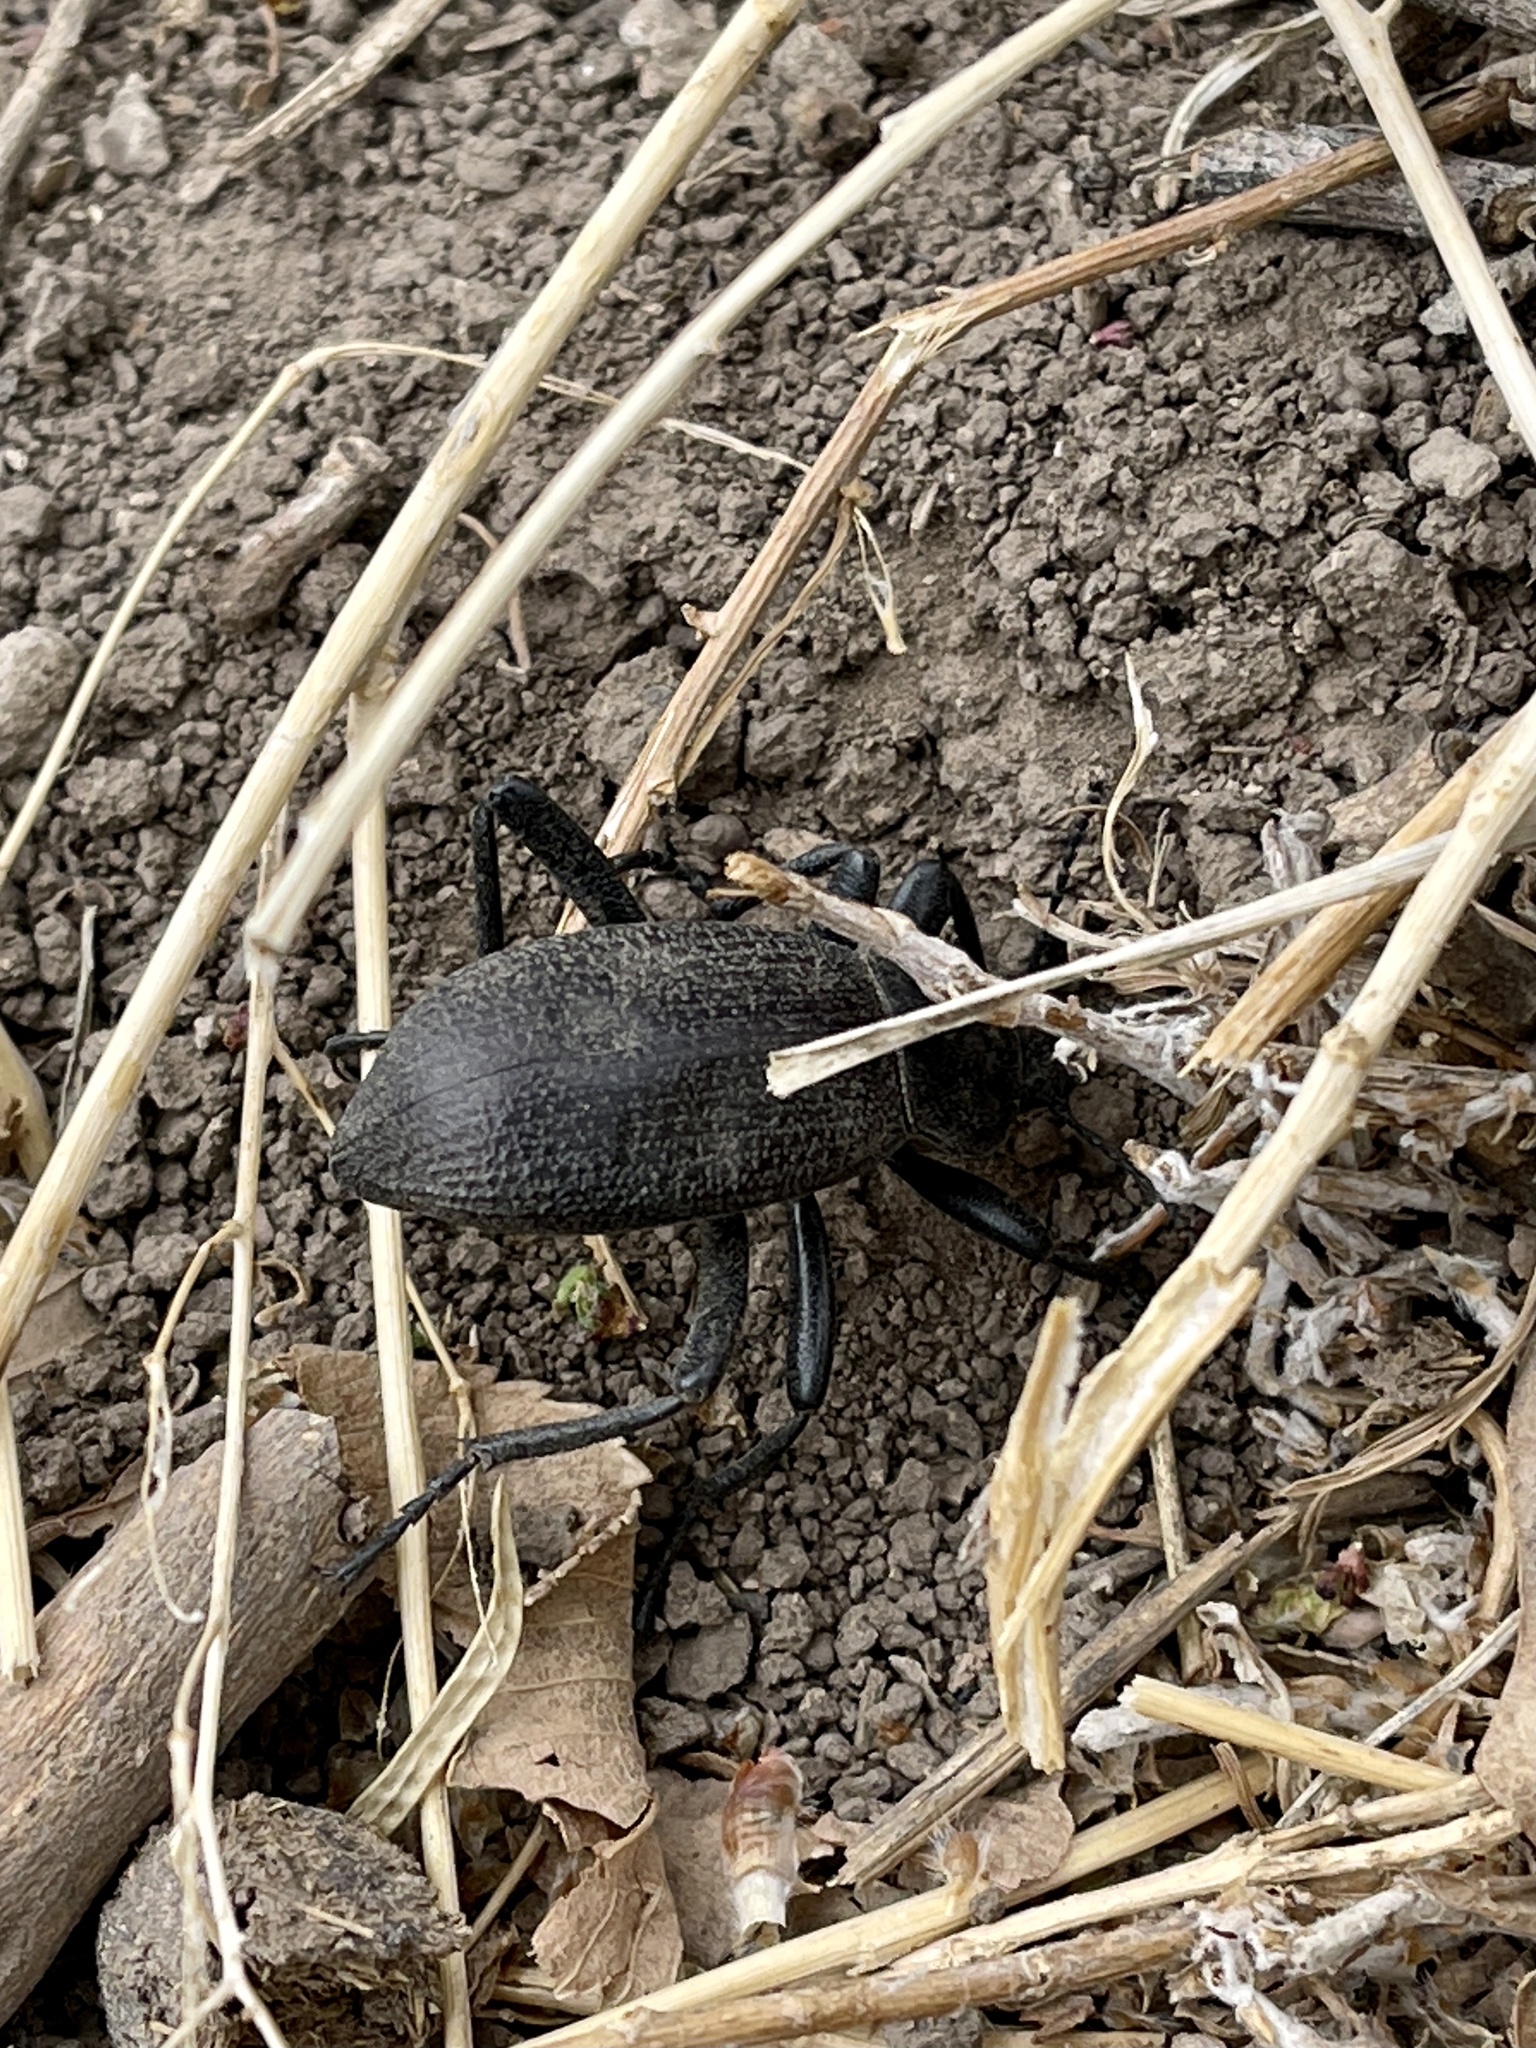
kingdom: Animalia
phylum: Arthropoda
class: Insecta
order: Coleoptera
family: Tenebrionidae
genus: Eleodes
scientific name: Eleodes obscura
